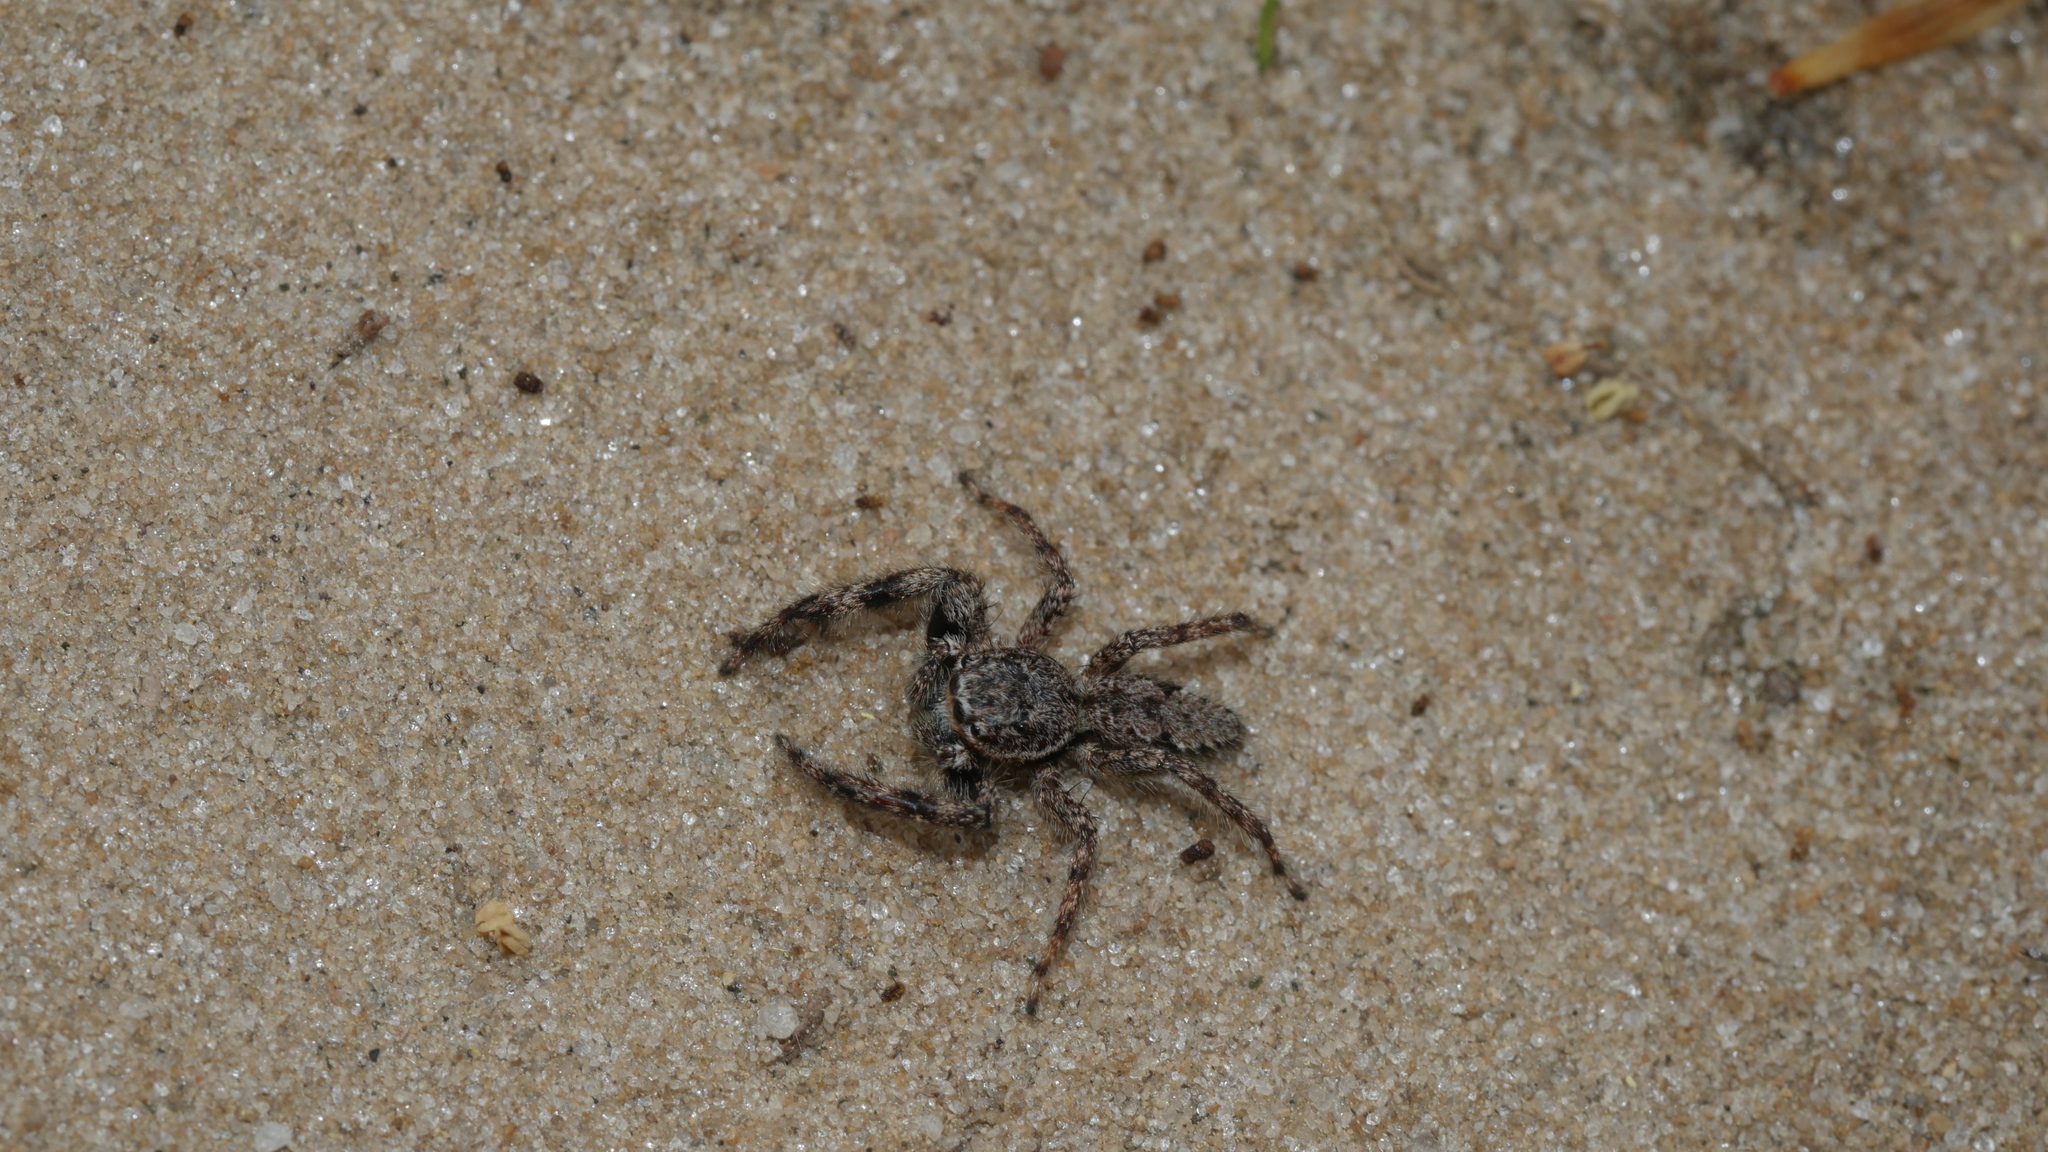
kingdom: Animalia
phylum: Arthropoda
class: Arachnida
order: Araneae
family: Salticidae
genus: Platycryptus
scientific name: Platycryptus undatus
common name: Tan jumping spider
